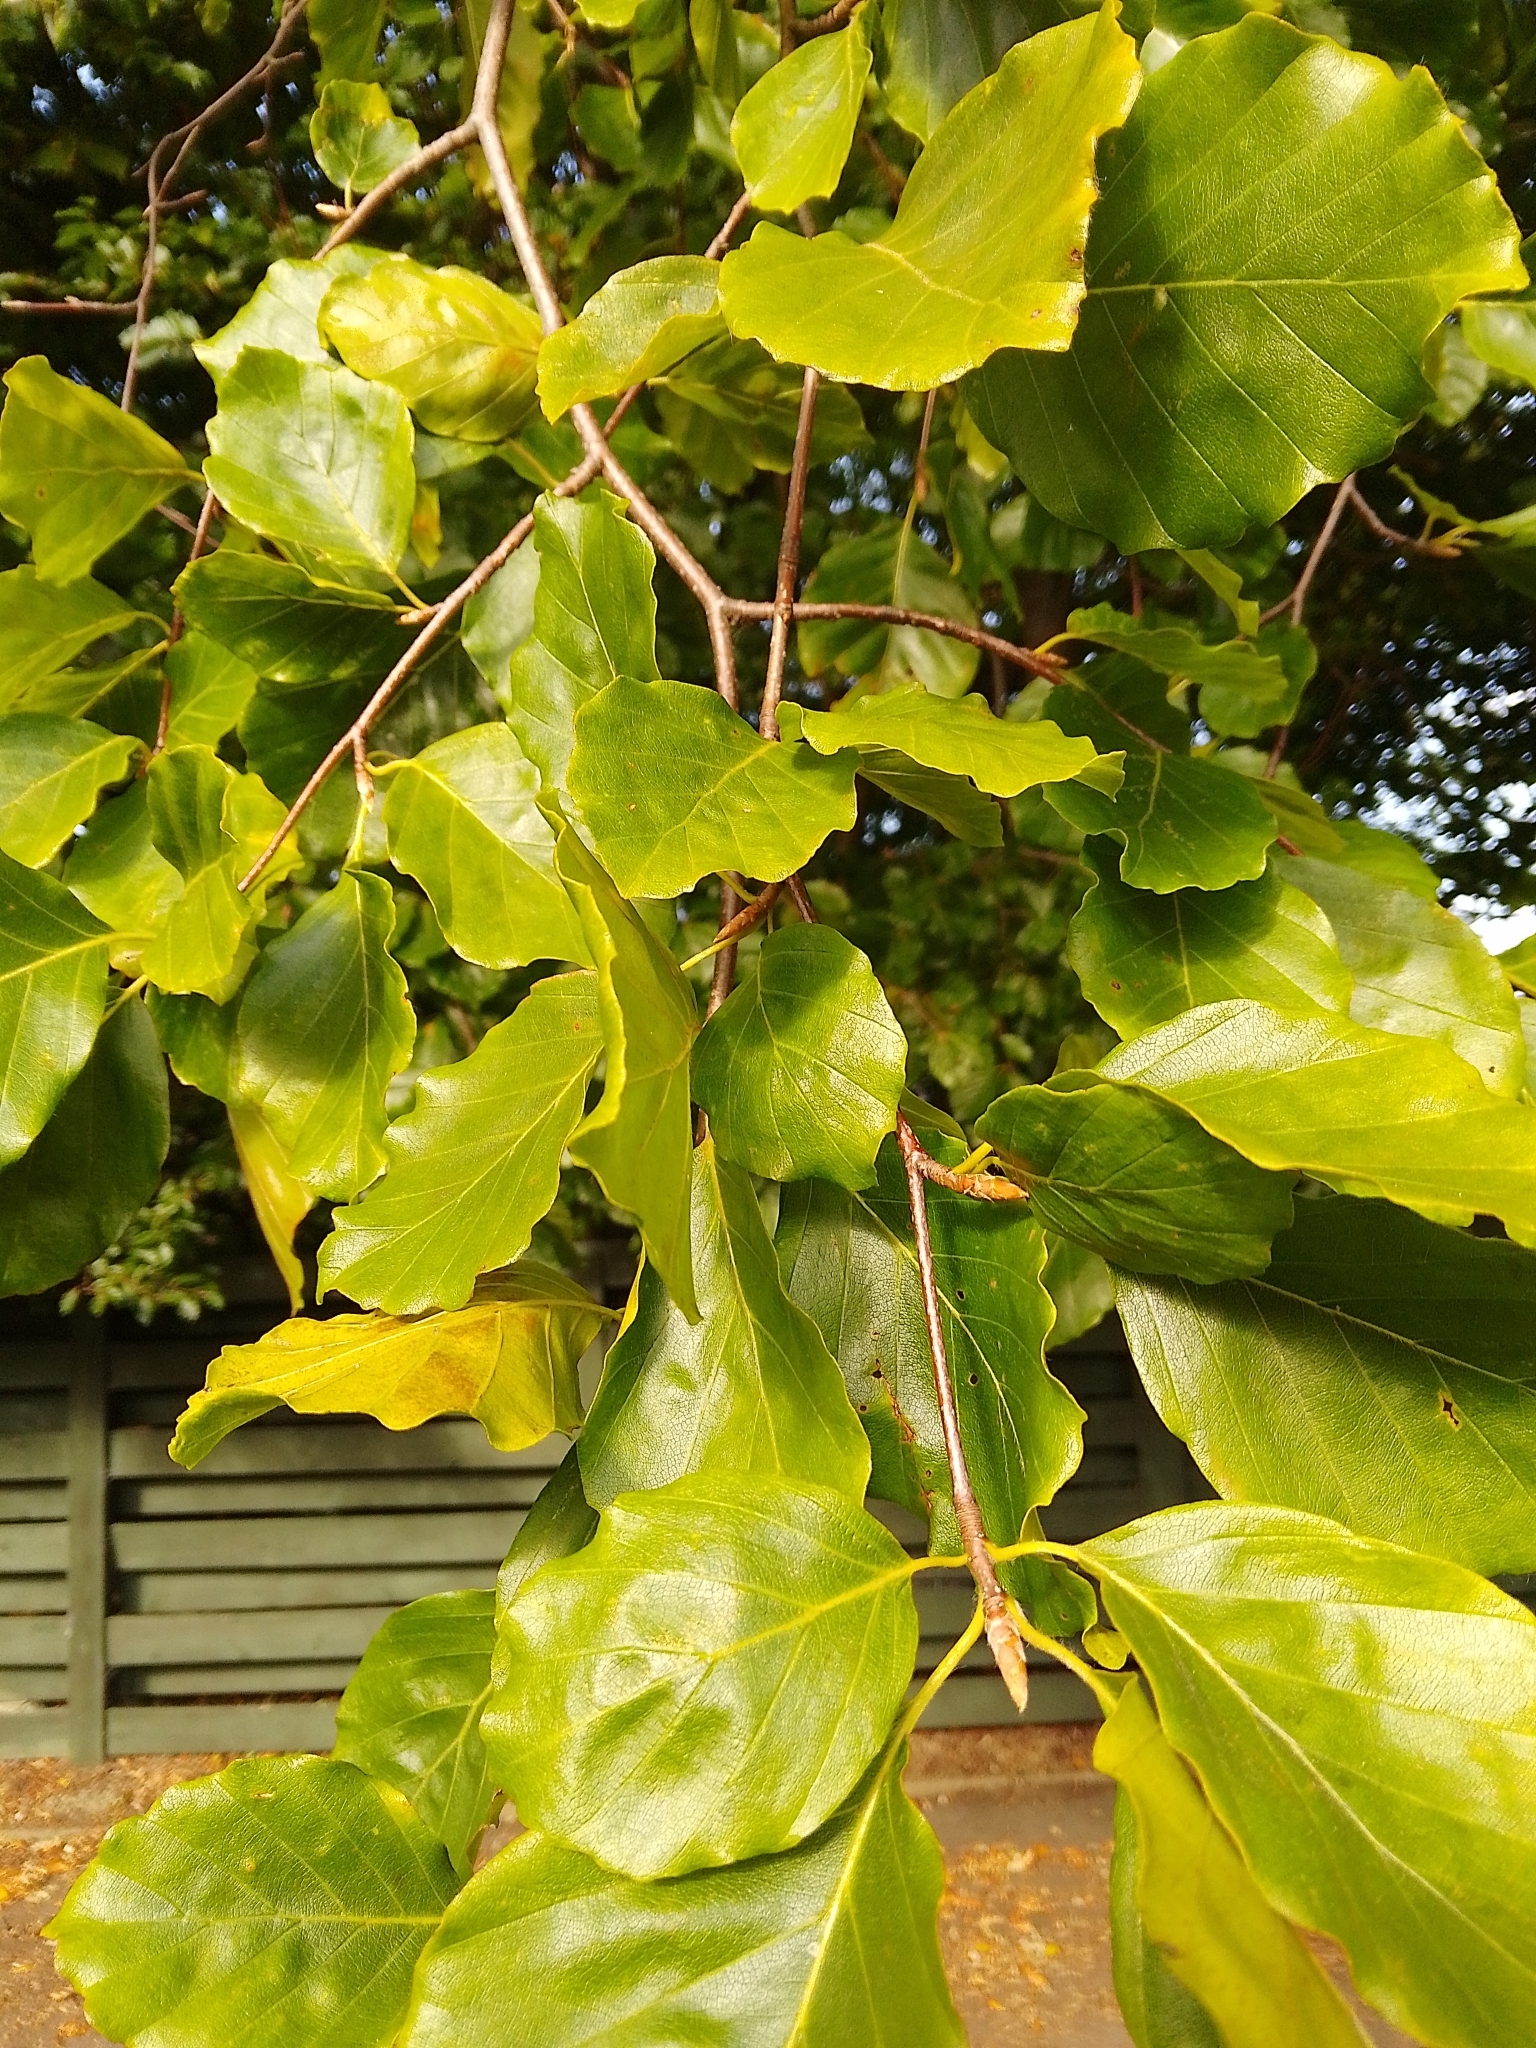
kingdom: Plantae
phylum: Tracheophyta
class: Magnoliopsida
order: Fagales
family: Fagaceae
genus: Fagus
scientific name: Fagus sylvatica
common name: Beech
